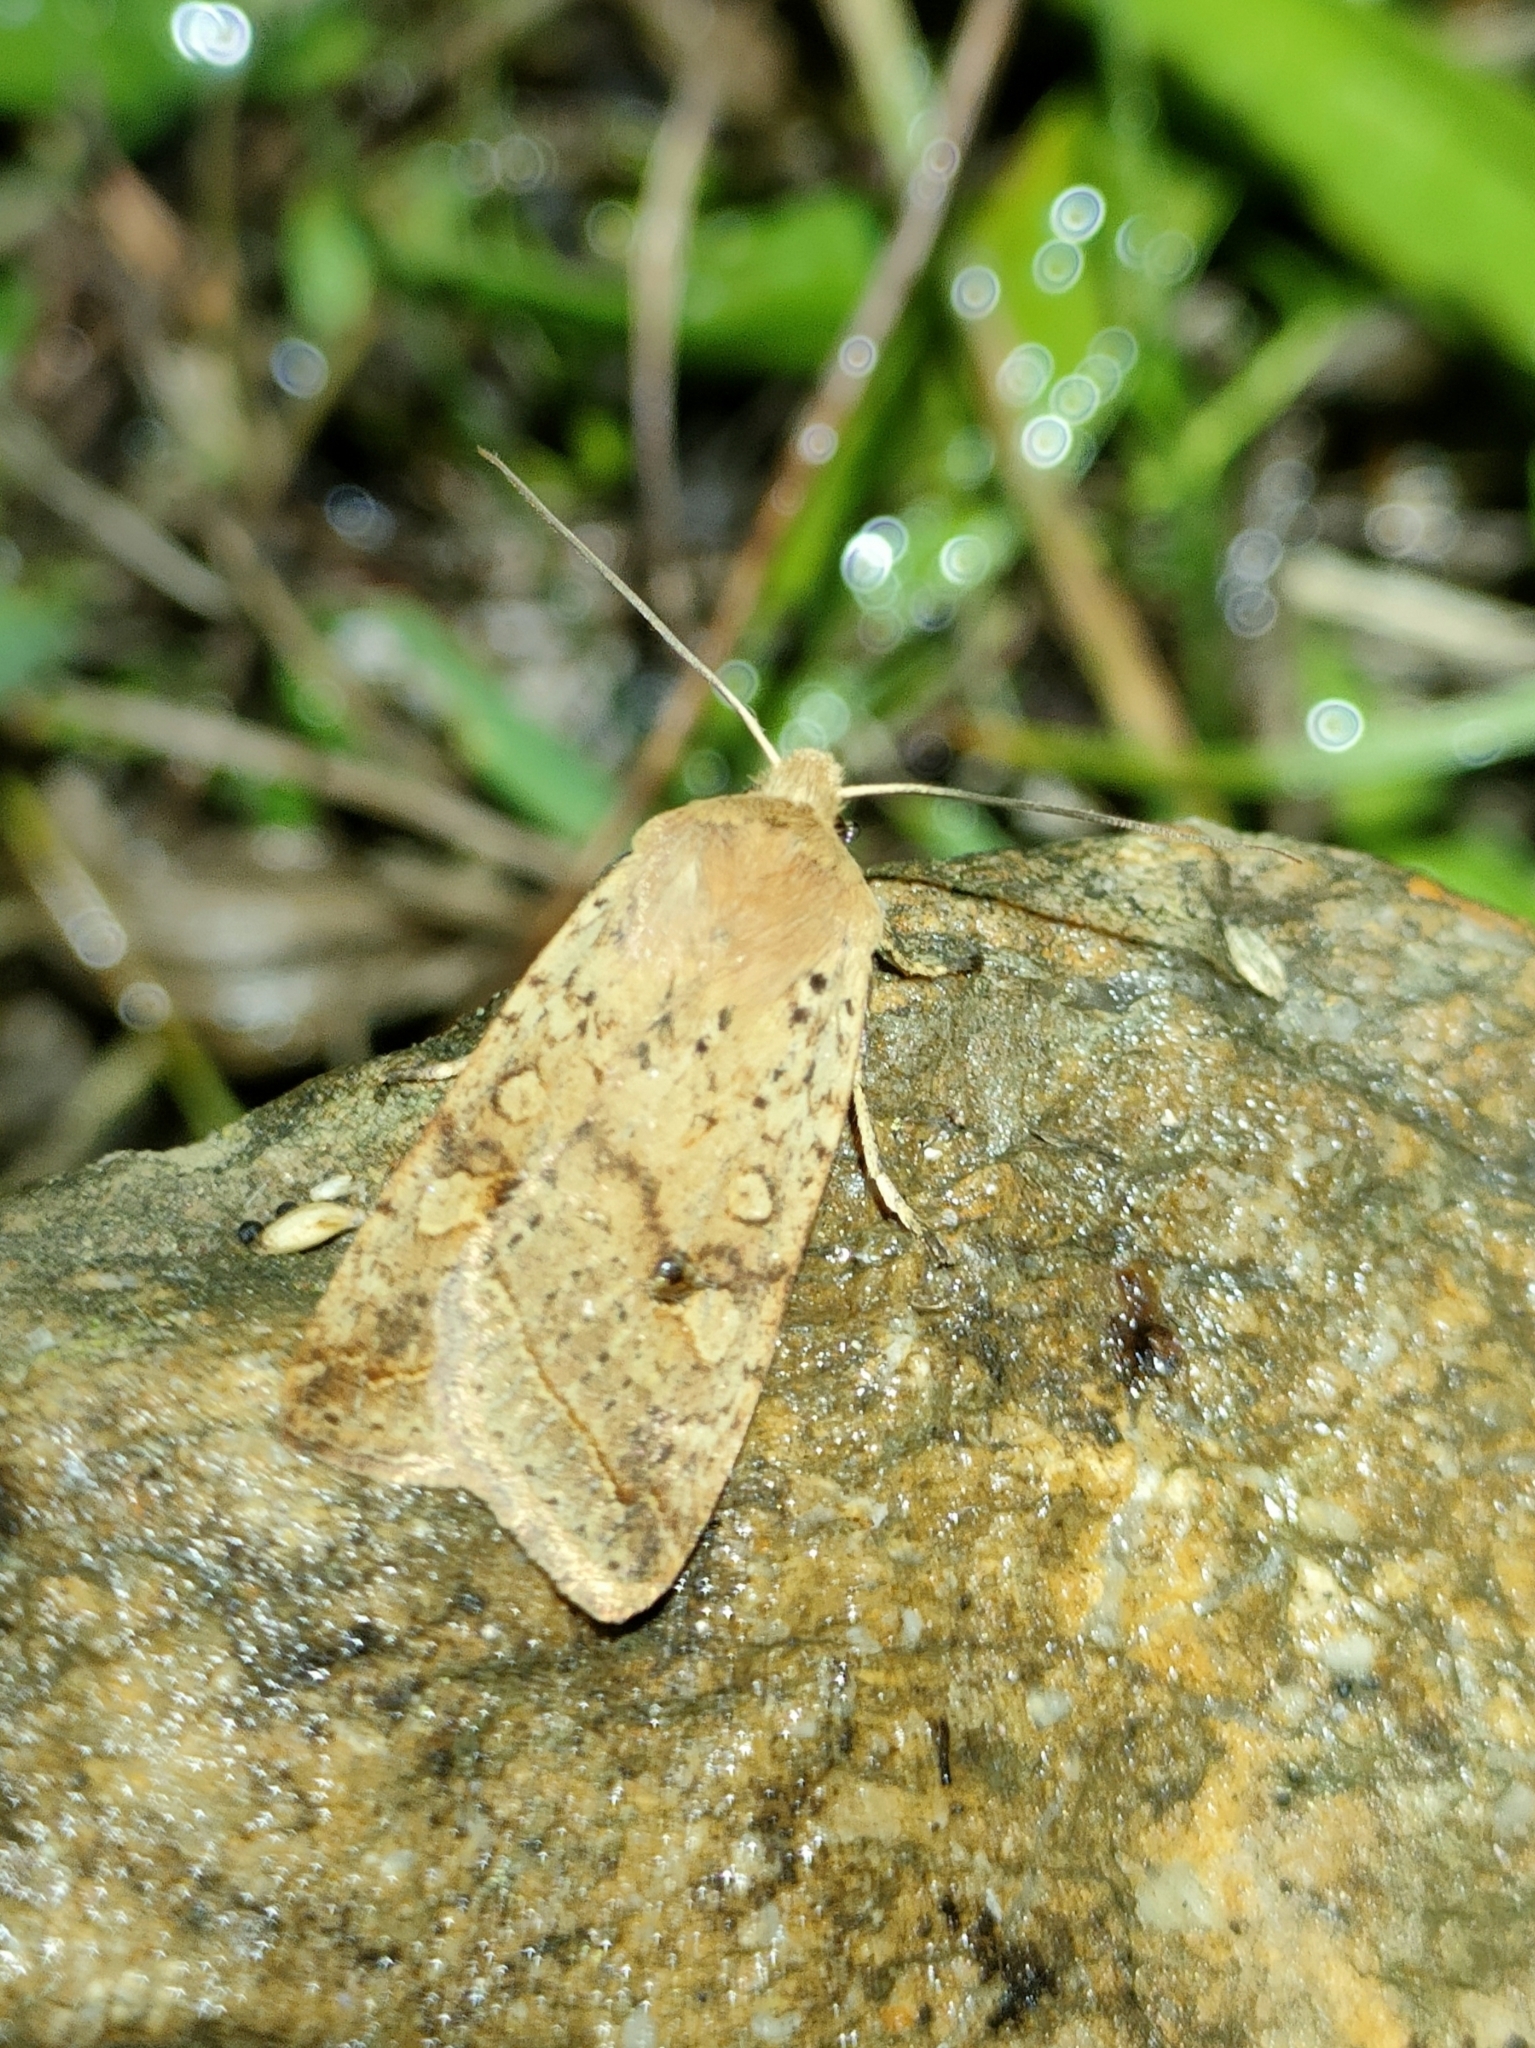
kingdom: Animalia
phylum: Arthropoda
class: Insecta
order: Lepidoptera
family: Noctuidae
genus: Agrochola
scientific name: Agrochola blidaensis
